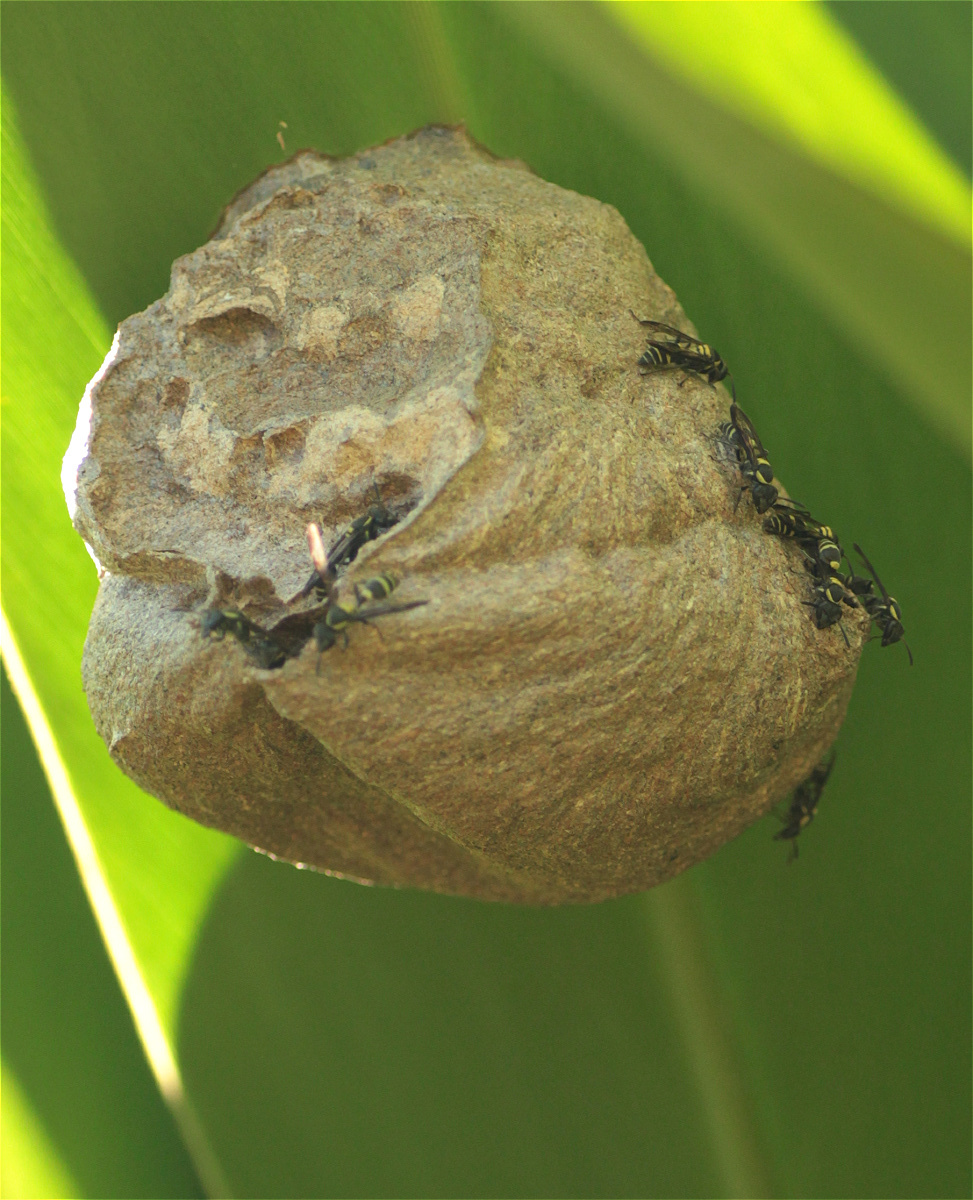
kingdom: Animalia
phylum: Arthropoda
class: Insecta
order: Hymenoptera
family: Eumenidae
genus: Polybia
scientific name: Polybia occidentalis
